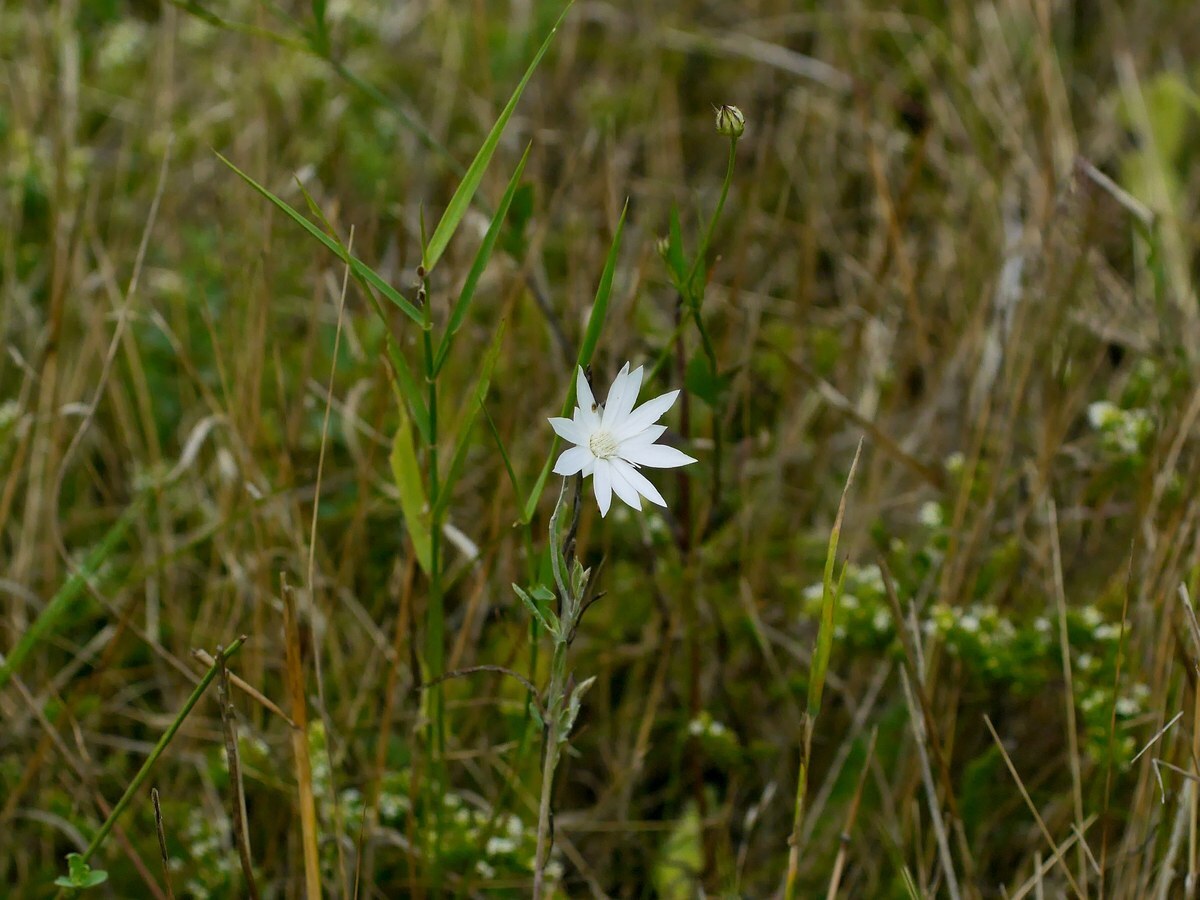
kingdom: Plantae
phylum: Tracheophyta
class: Magnoliopsida
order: Asterales
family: Asteraceae
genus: Xeranthemum
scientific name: Xeranthemum annuum
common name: Immortelle
